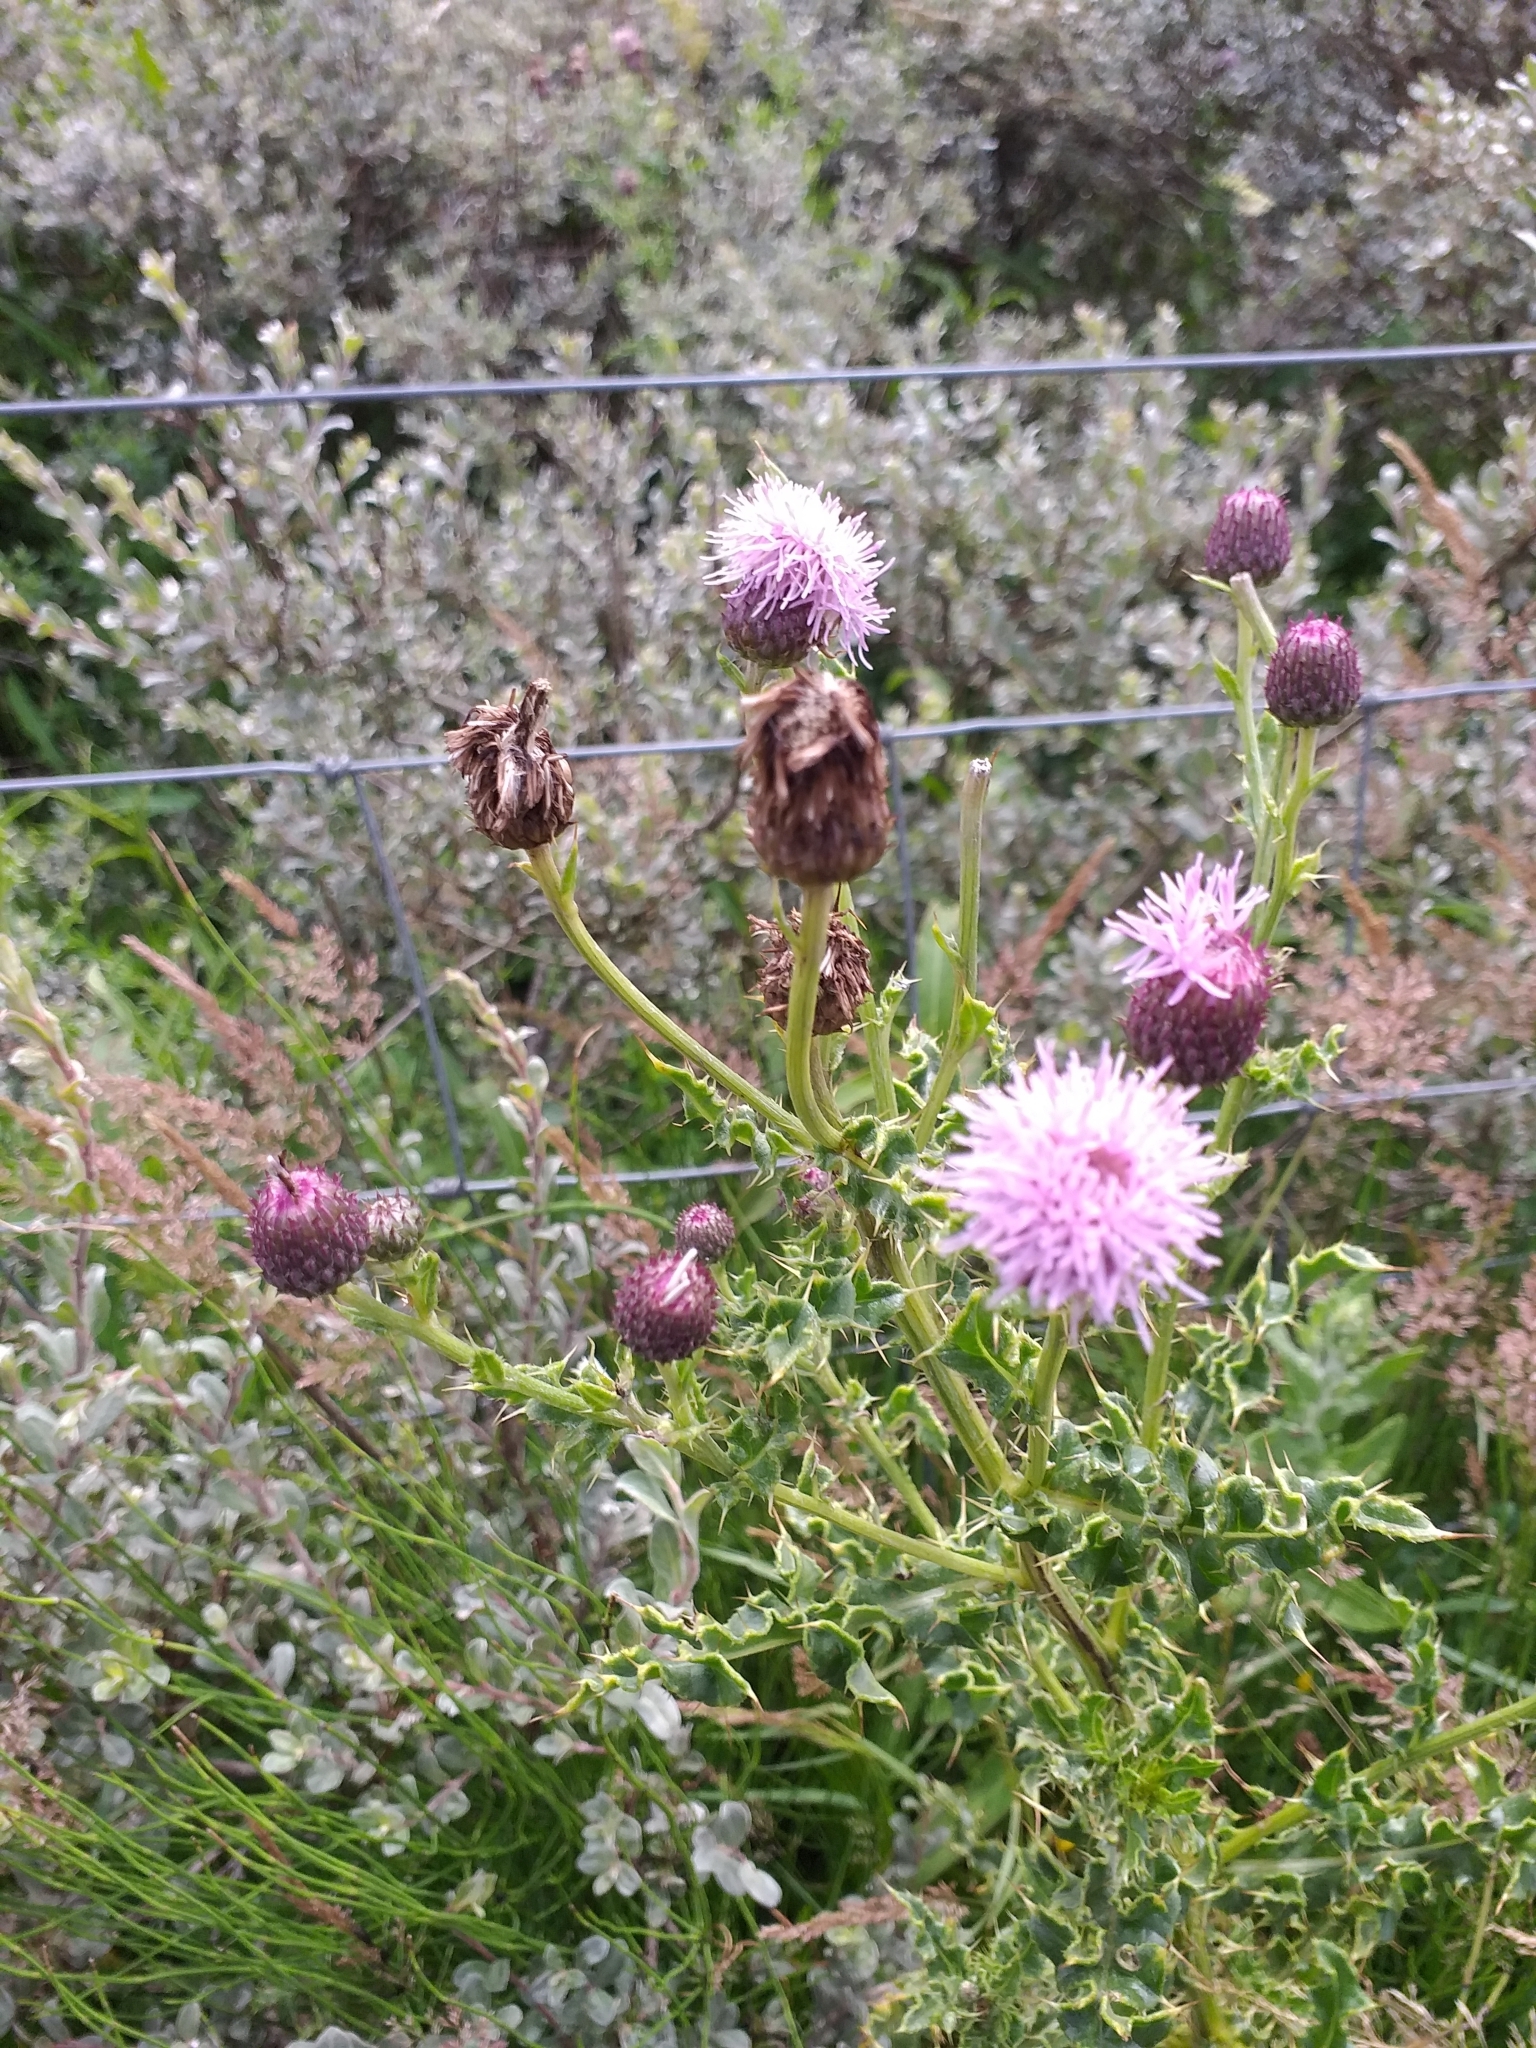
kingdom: Plantae
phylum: Tracheophyta
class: Magnoliopsida
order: Asterales
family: Asteraceae
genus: Cirsium
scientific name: Cirsium arvense
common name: Creeping thistle
